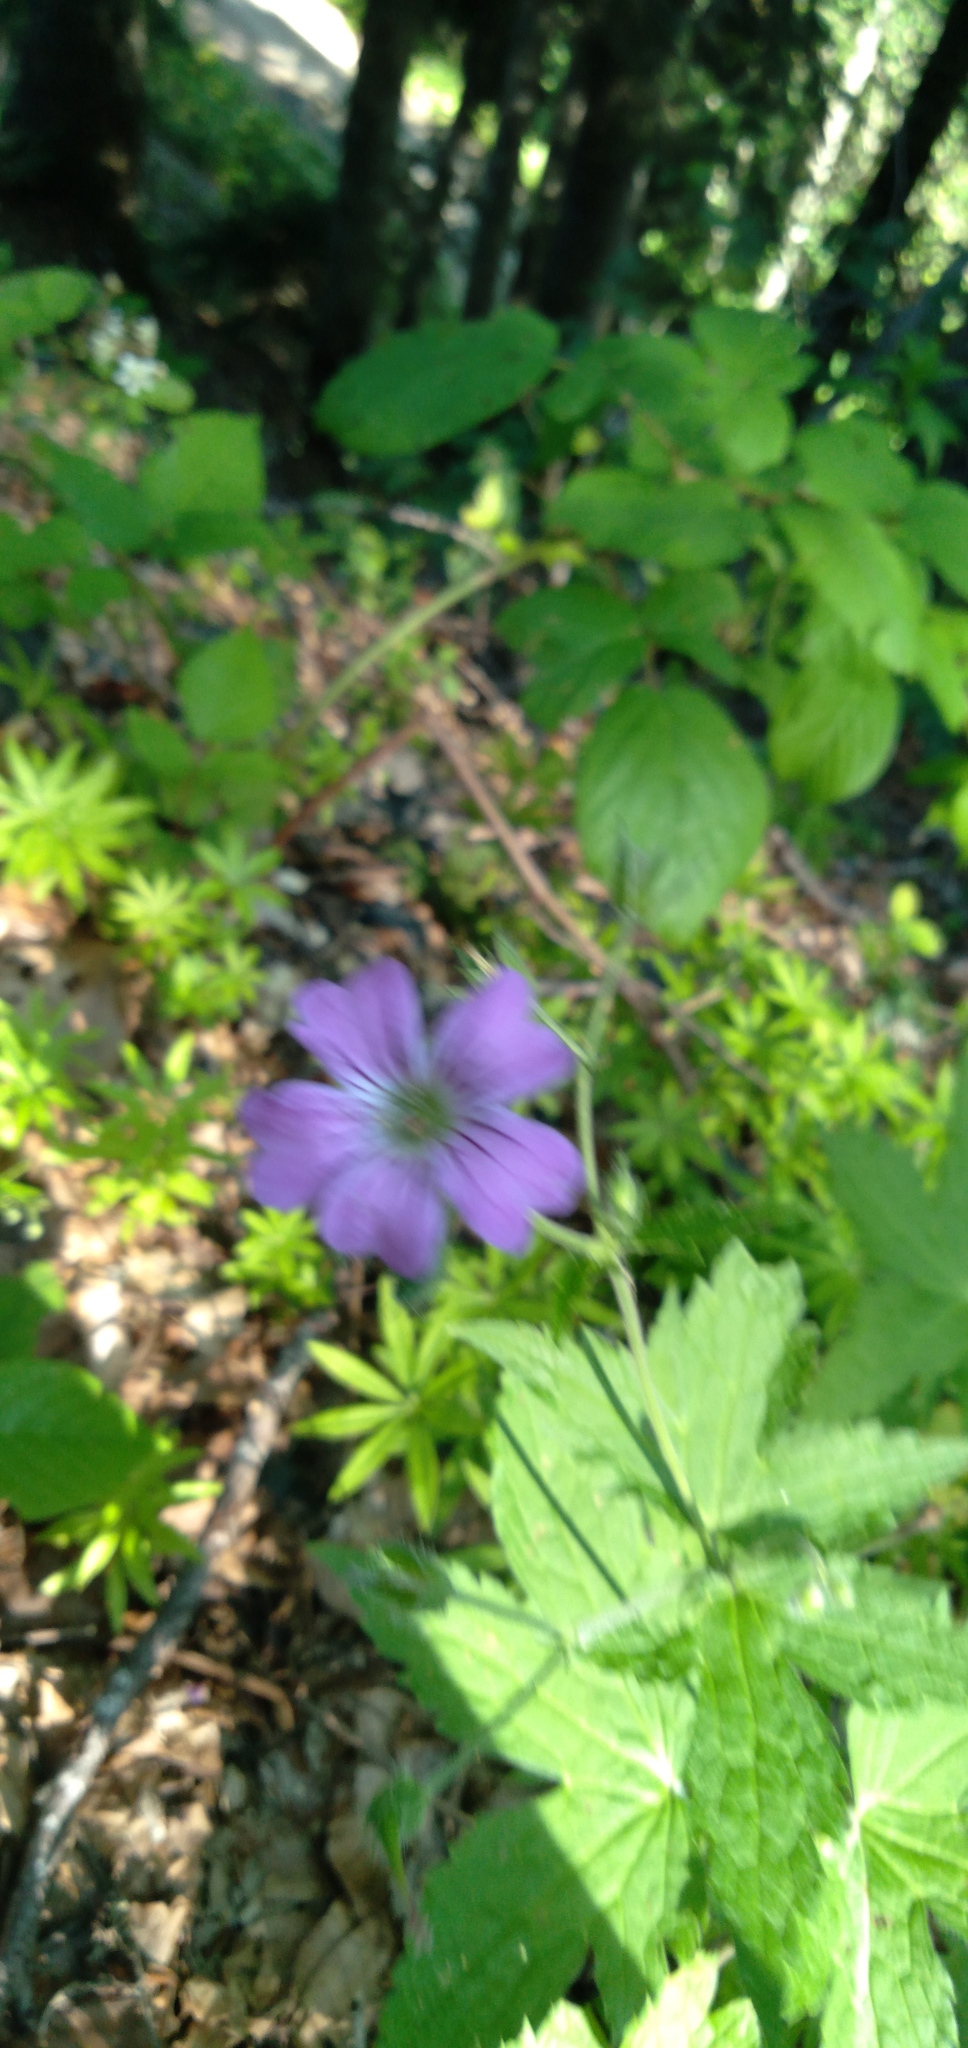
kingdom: Plantae
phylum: Tracheophyta
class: Magnoliopsida
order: Geraniales
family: Geraniaceae
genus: Geranium
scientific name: Geranium gracile
